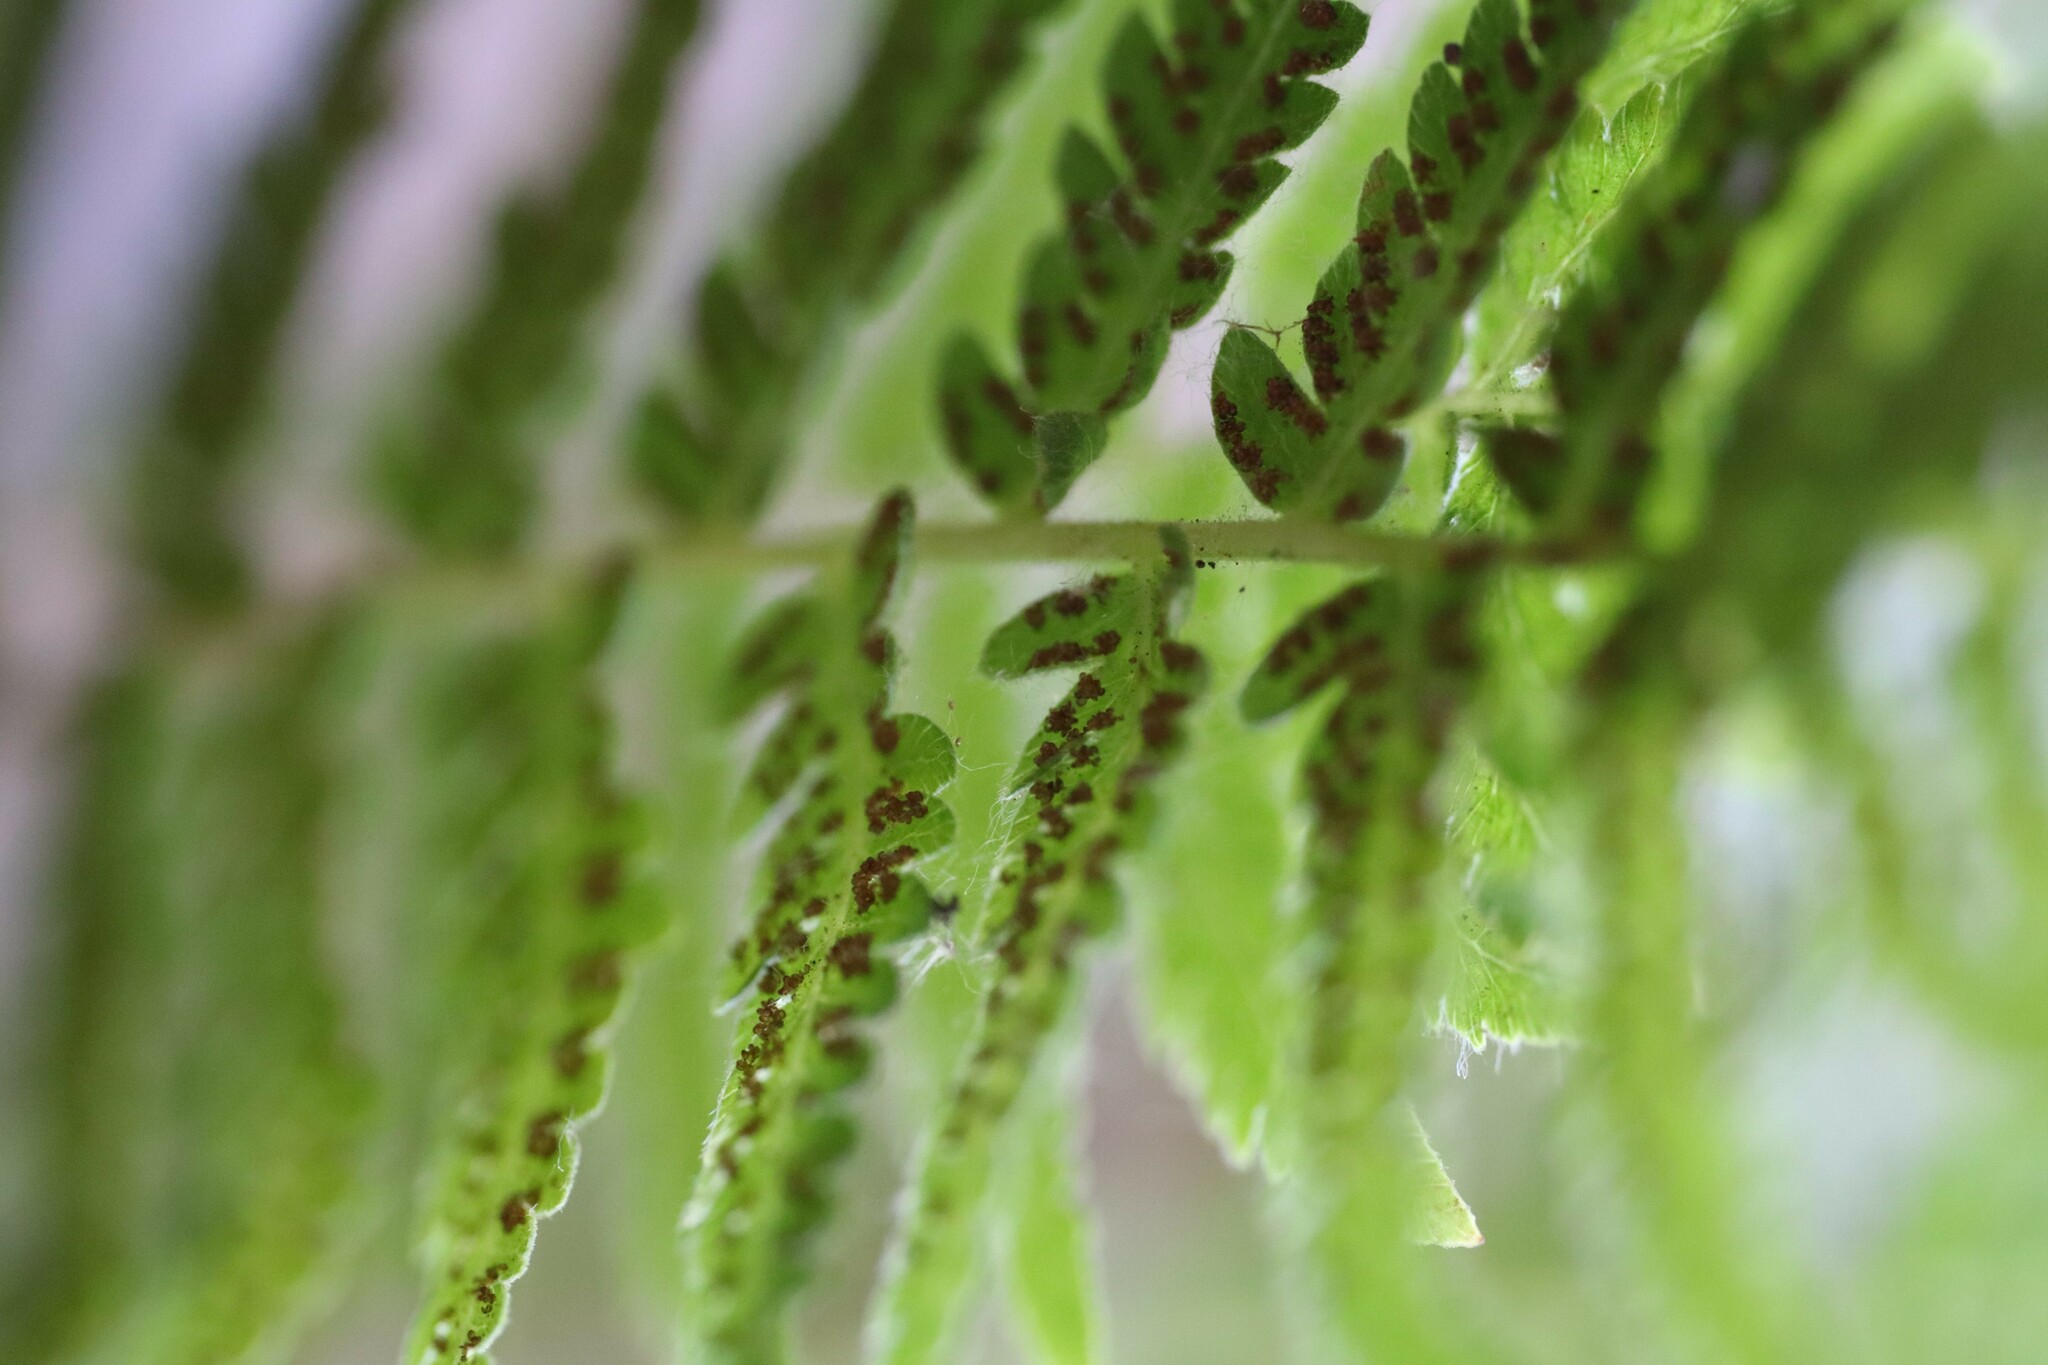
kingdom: Plantae
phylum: Tracheophyta
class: Polypodiopsida
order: Polypodiales
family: Thelypteridaceae
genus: Amauropelta
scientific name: Amauropelta argentina
